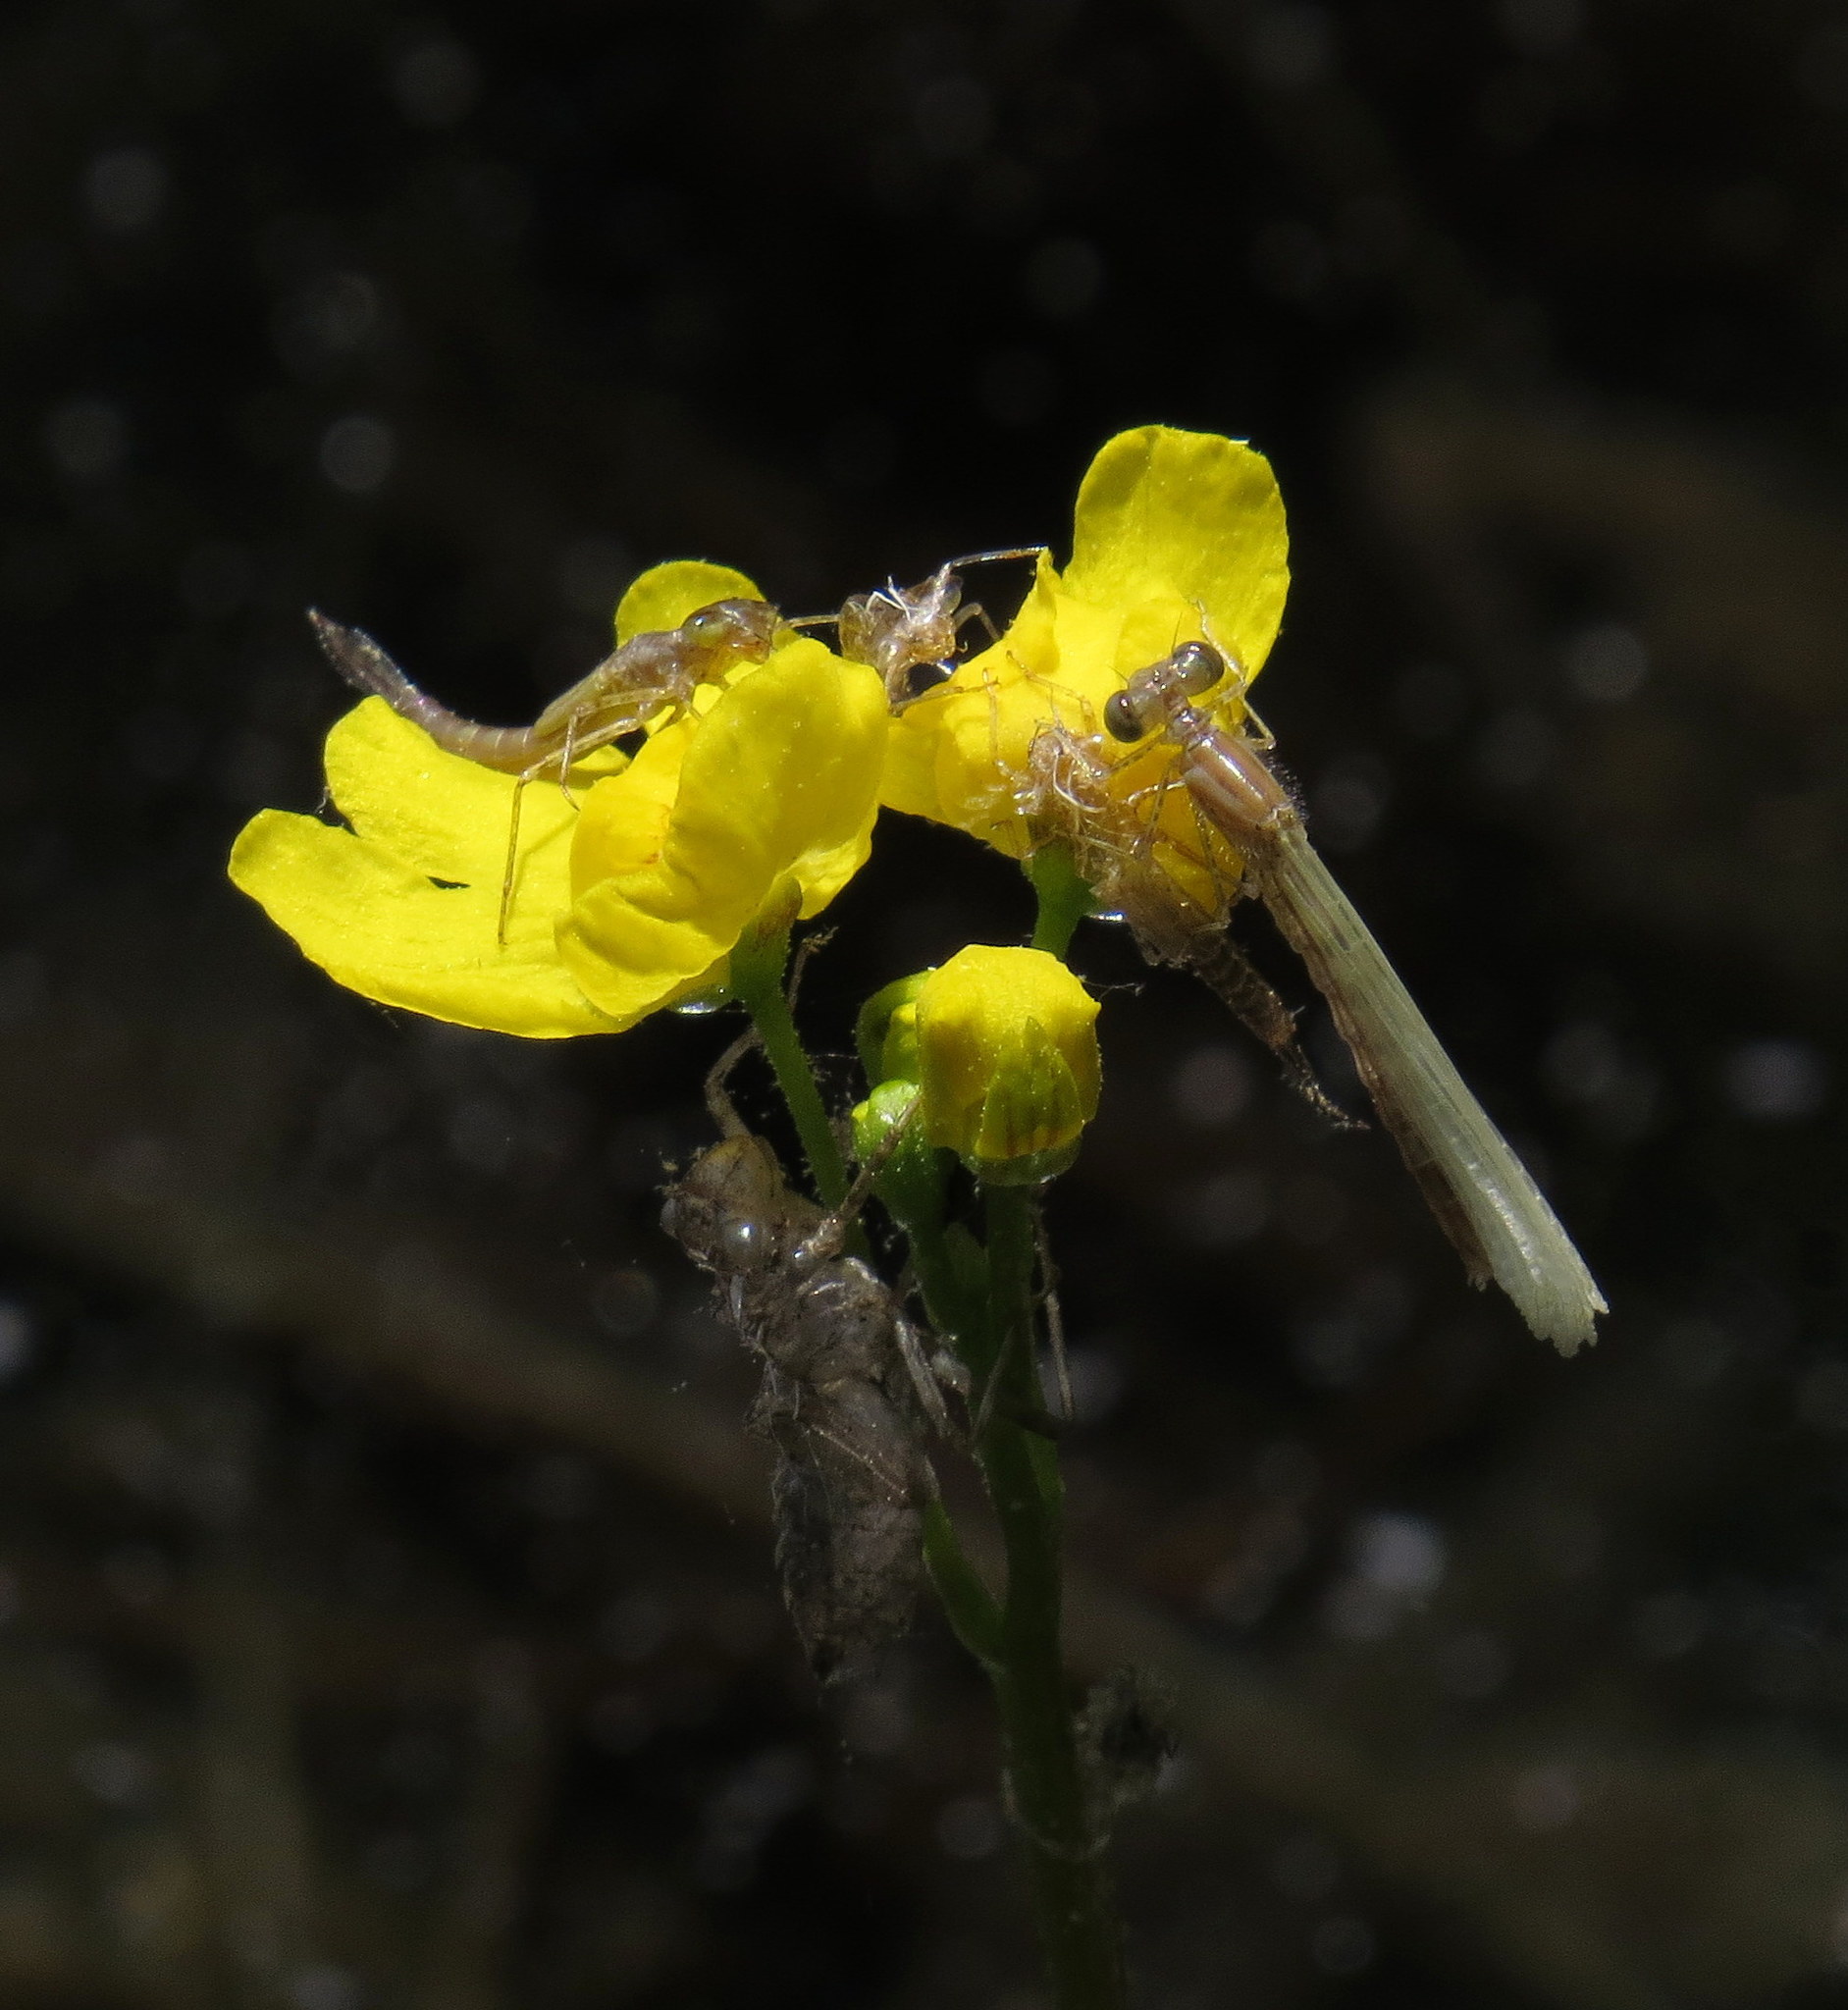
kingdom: Plantae
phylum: Tracheophyta
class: Magnoliopsida
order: Lamiales
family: Lentibulariaceae
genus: Utricularia
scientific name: Utricularia radiata
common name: Floating bladderwort
